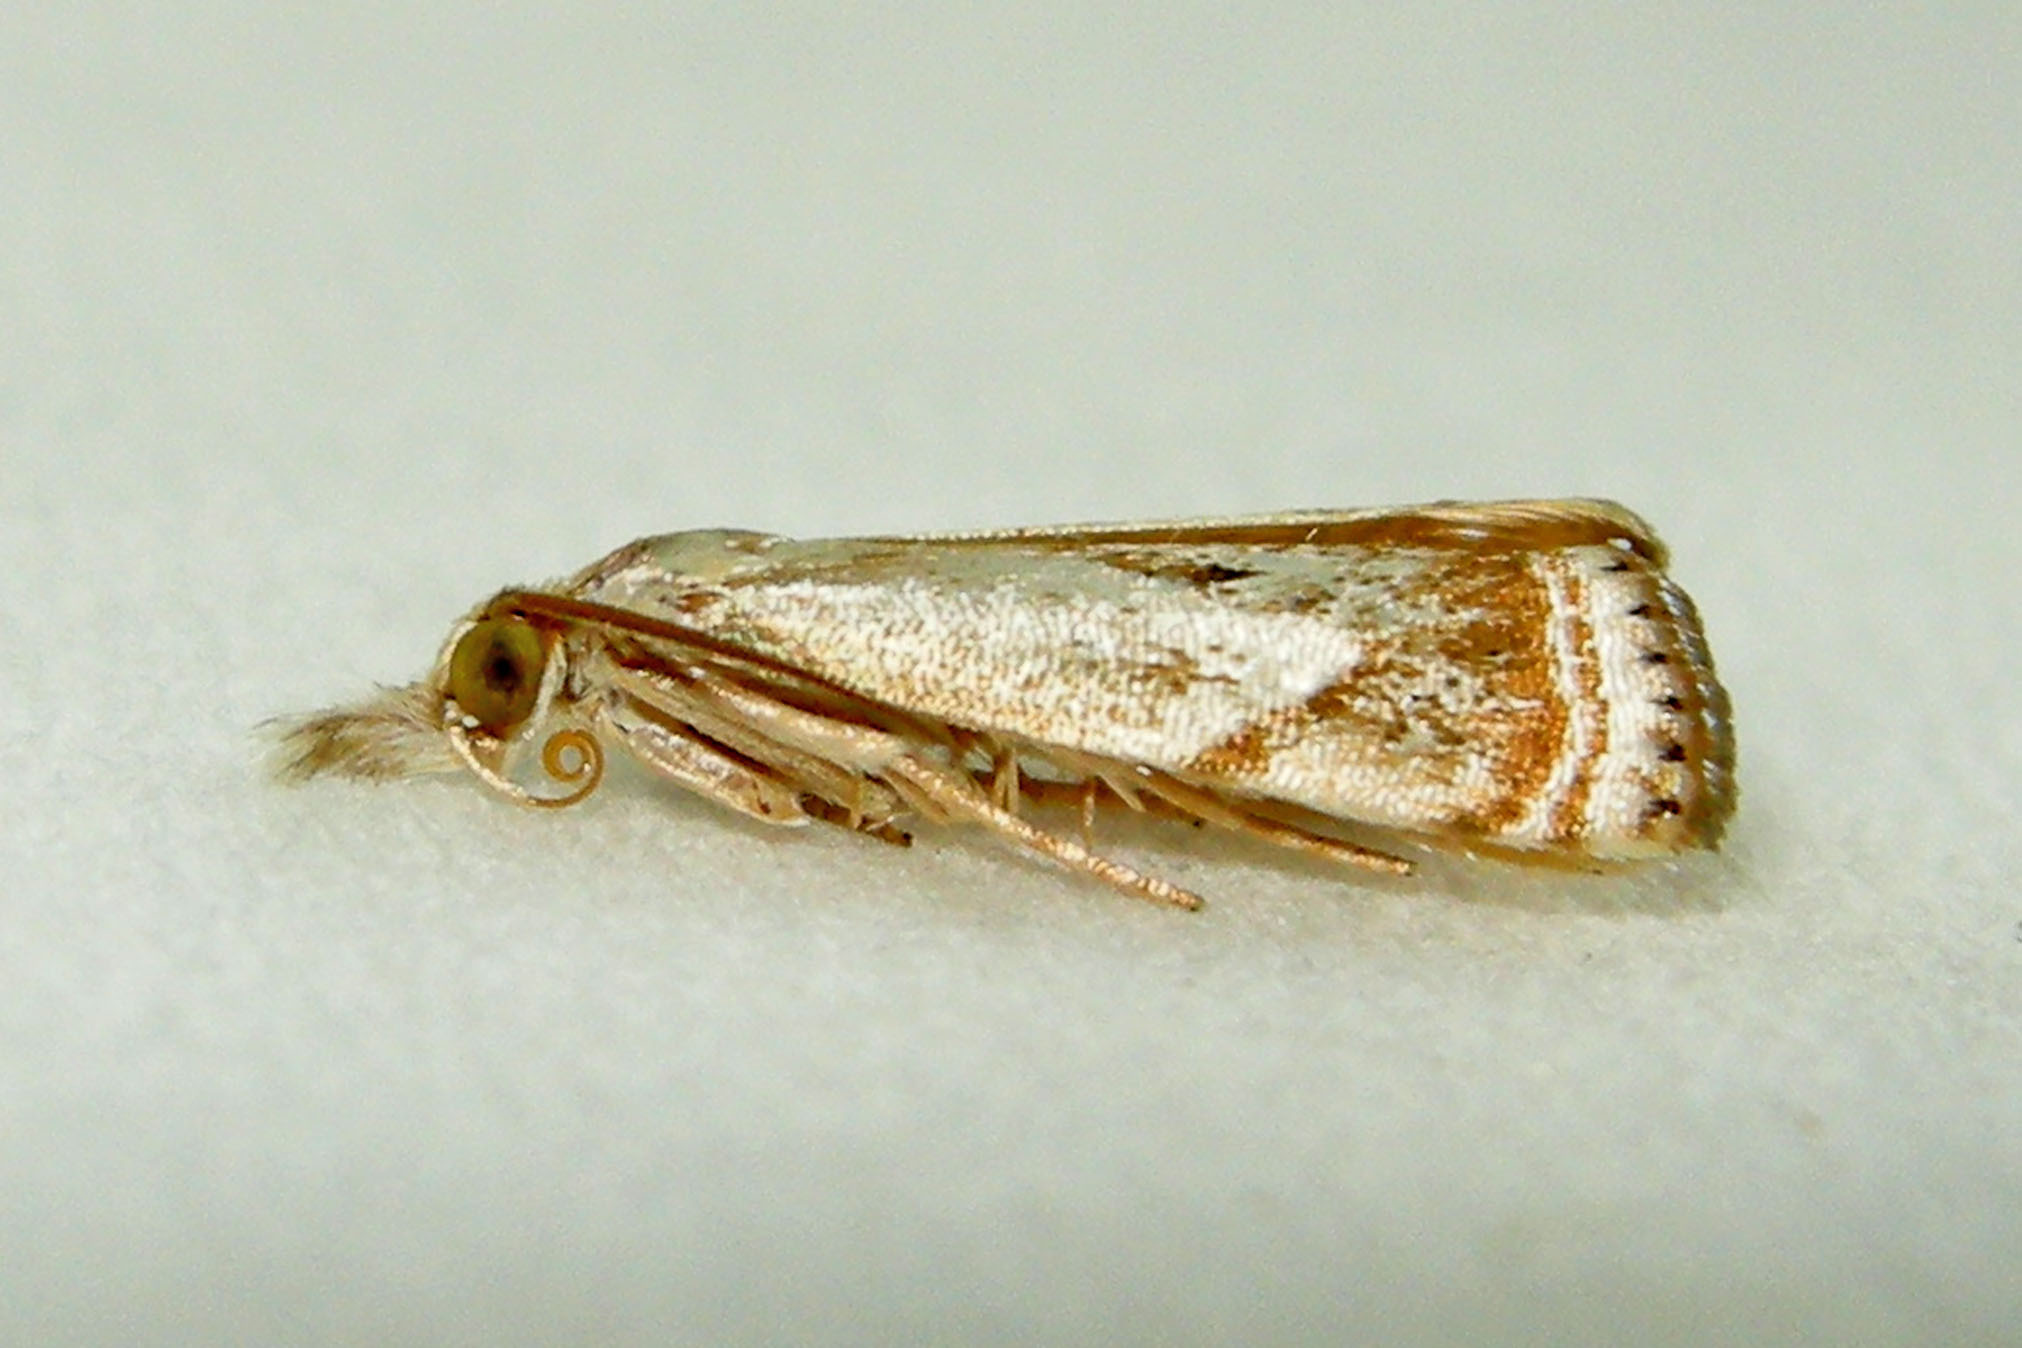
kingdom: Animalia
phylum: Arthropoda
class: Insecta
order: Lepidoptera
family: Crambidae
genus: Microcrambus
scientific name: Microcrambus elegans
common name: Elegant grass-veneer
